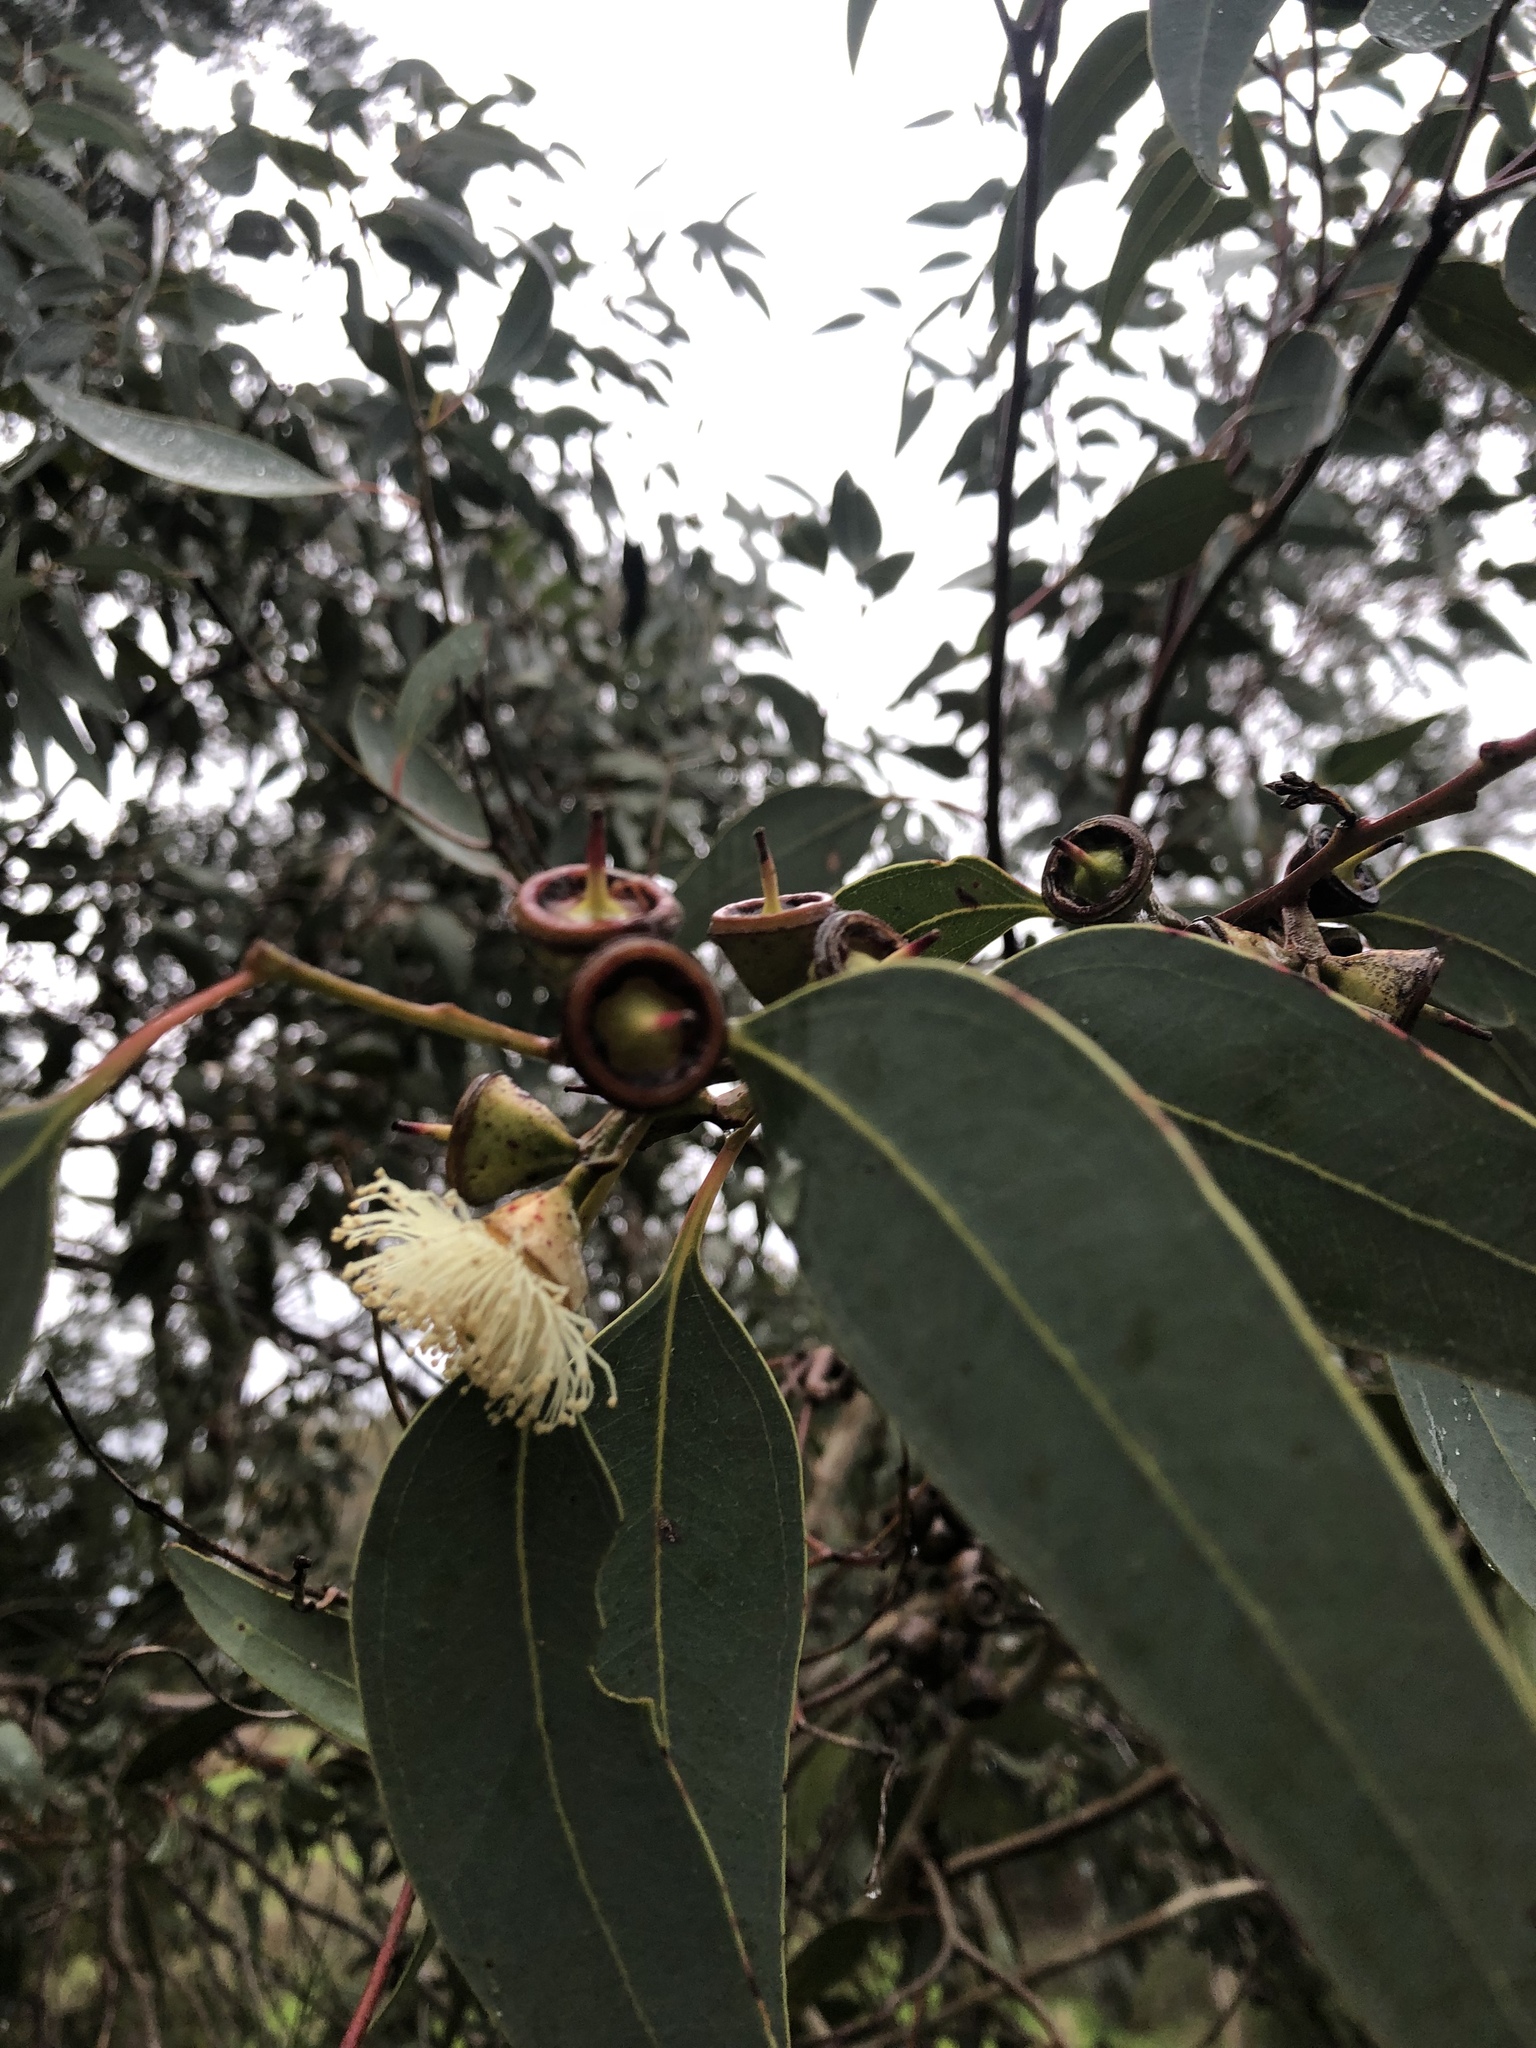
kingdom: Plantae
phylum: Tracheophyta
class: Magnoliopsida
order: Myrtales
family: Myrtaceae
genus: Eucalyptus
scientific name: Eucalyptus cosmophylla
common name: Bog-gum
